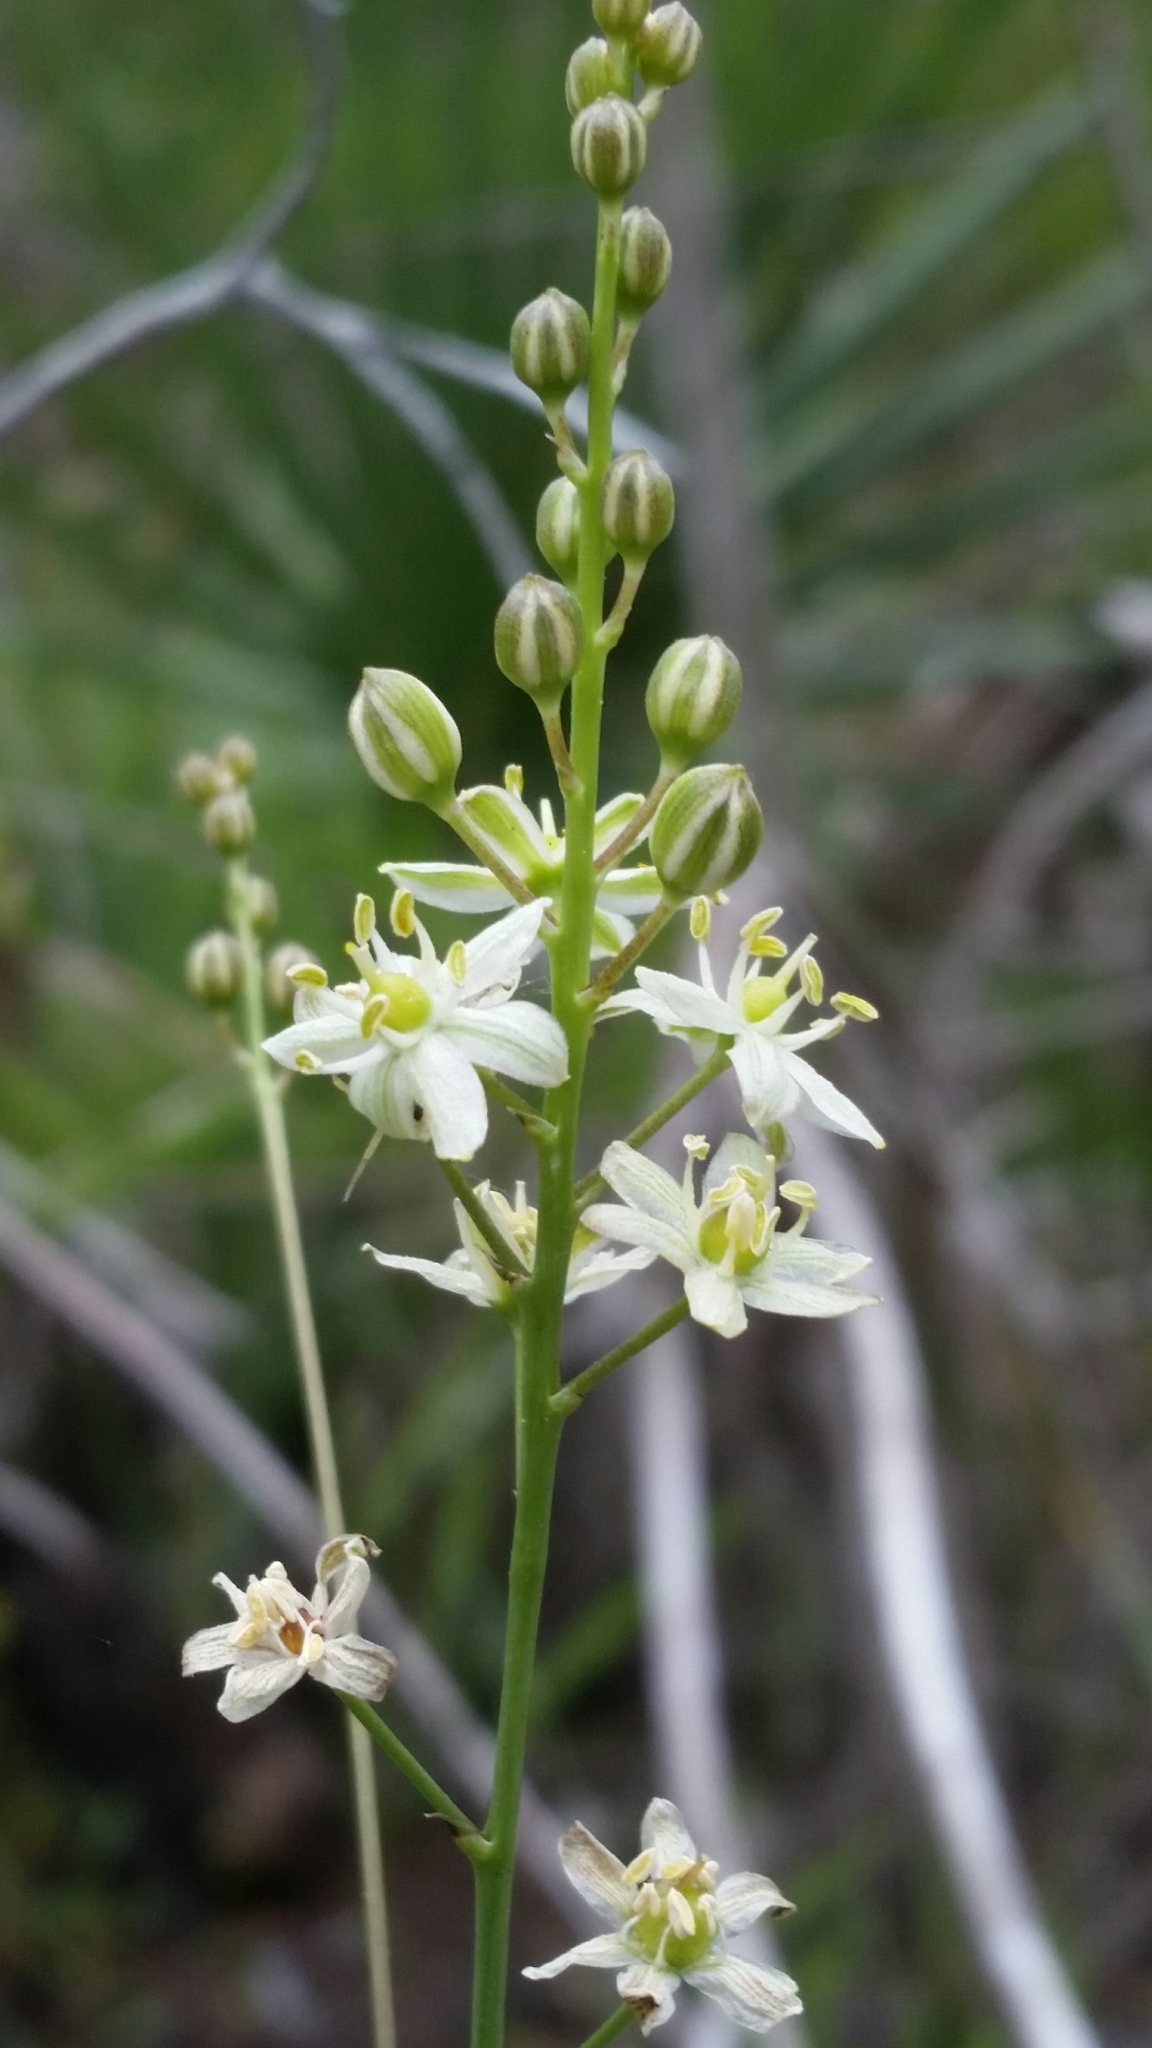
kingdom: Plantae
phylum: Tracheophyta
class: Liliopsida
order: Asparagales
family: Asparagaceae
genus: Schoenolirion
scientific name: Schoenolirion albiflorum
